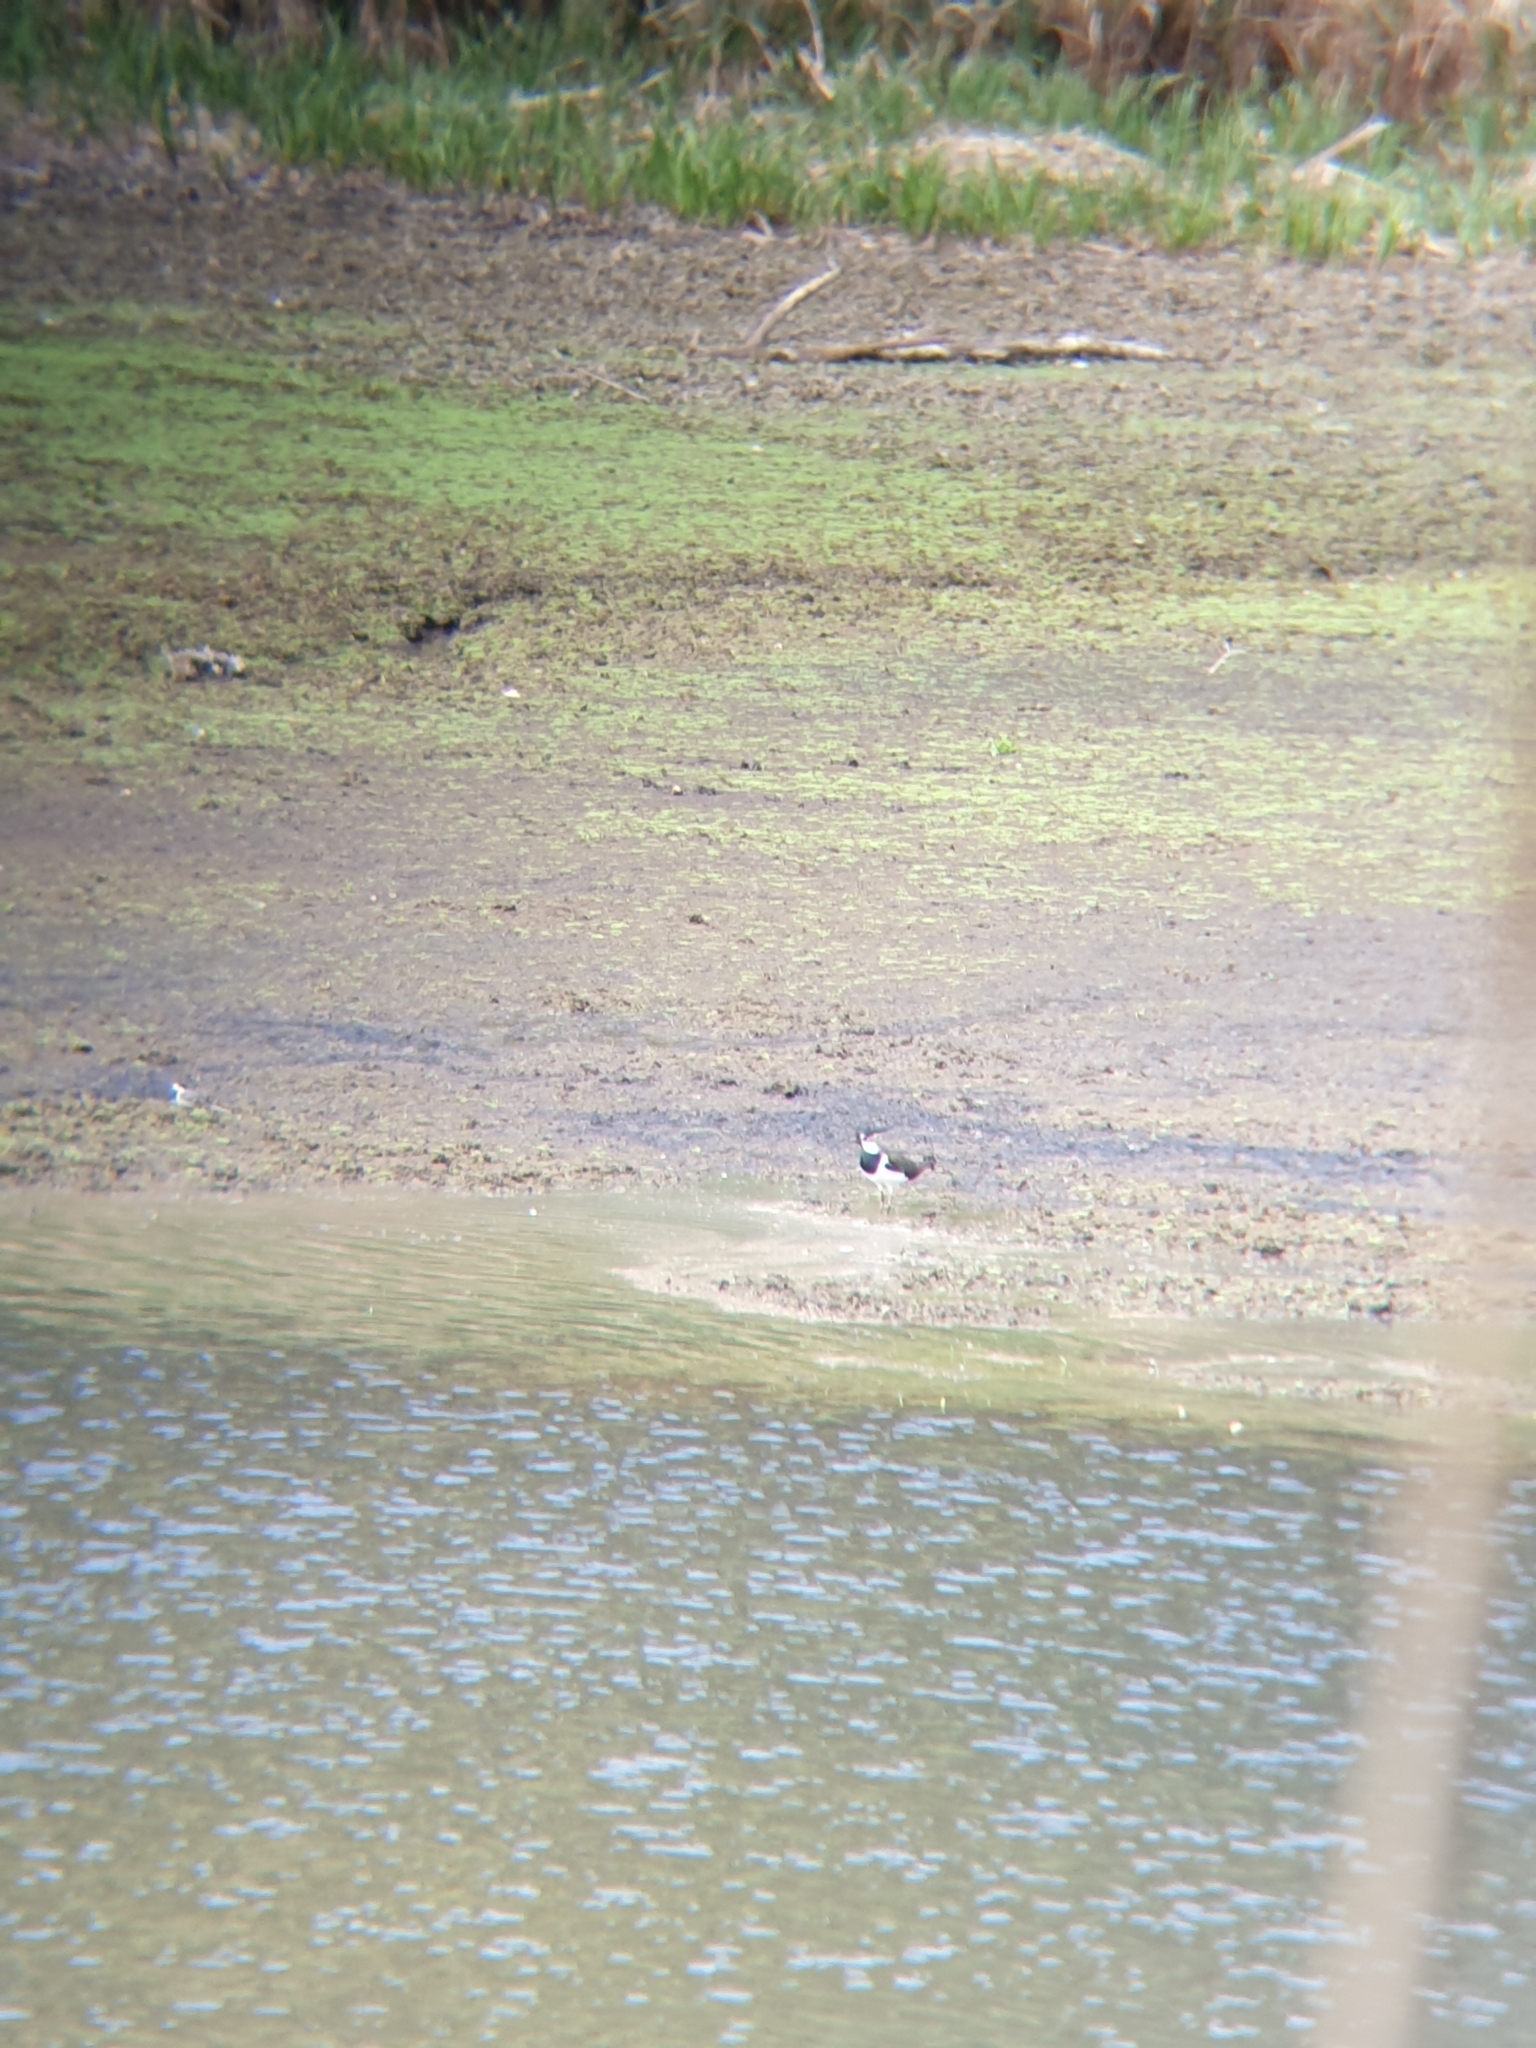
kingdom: Animalia
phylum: Chordata
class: Aves
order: Charadriiformes
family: Charadriidae
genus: Vanellus
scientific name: Vanellus vanellus
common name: Northern lapwing
